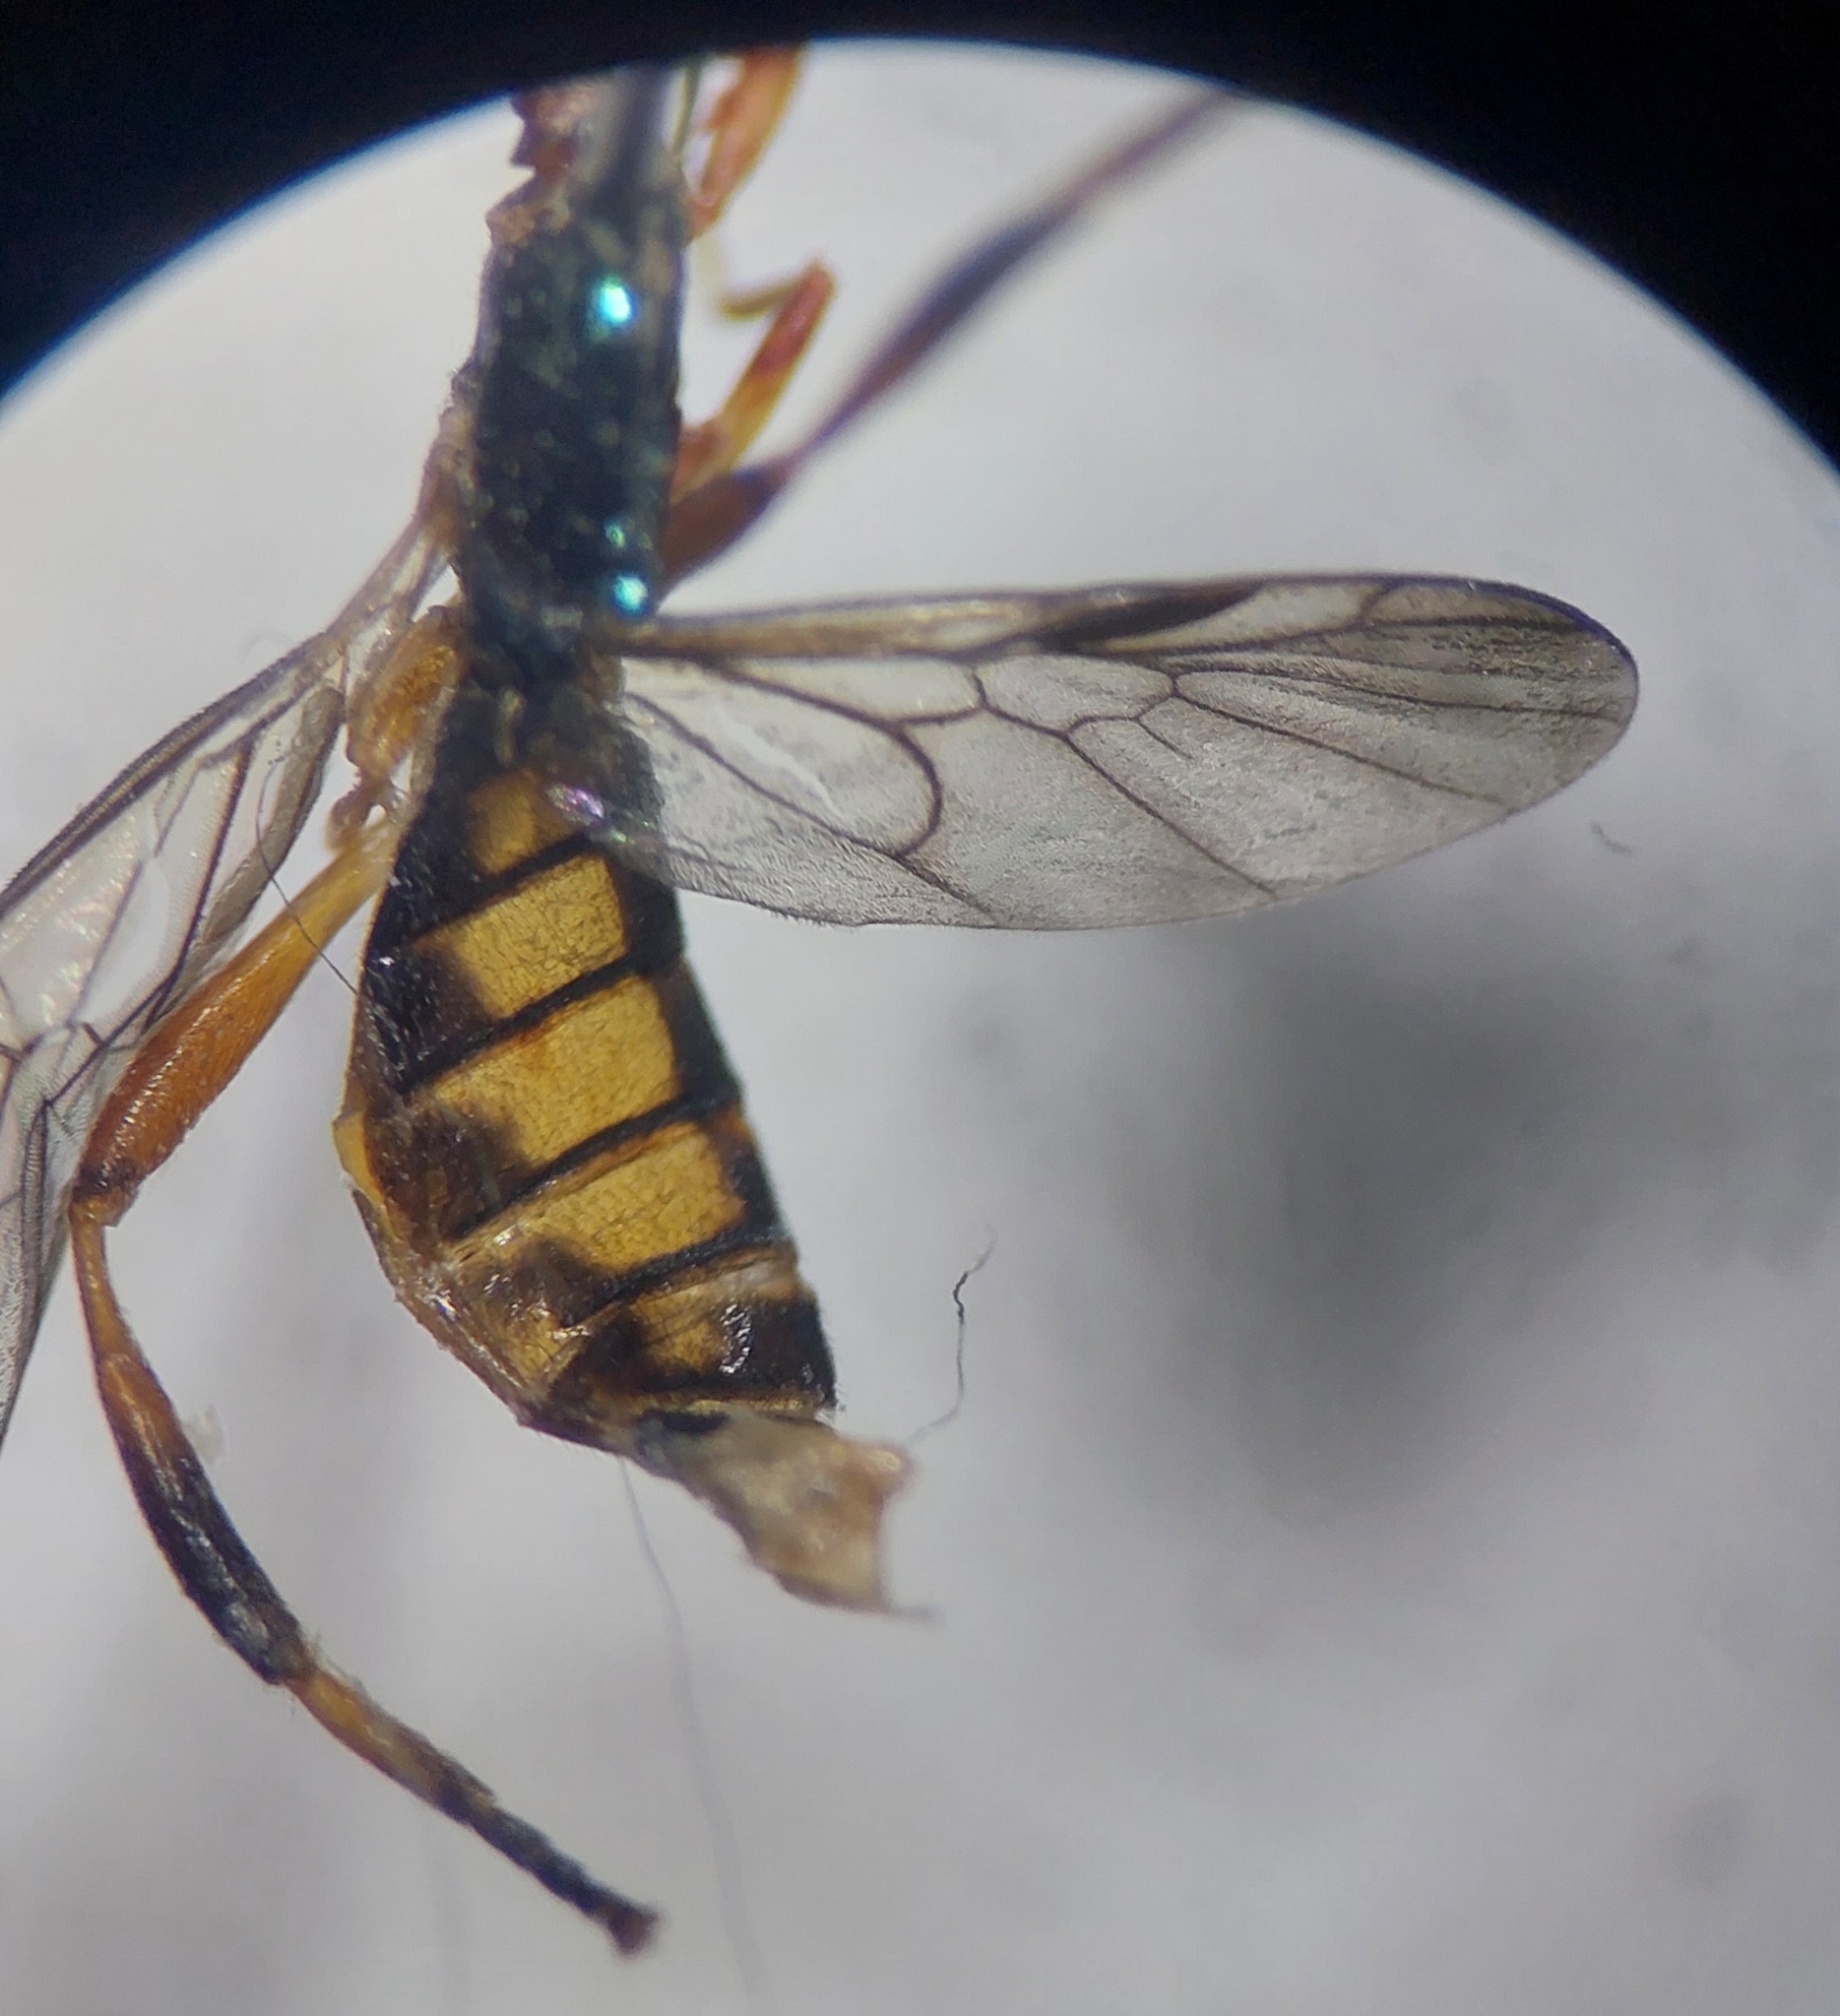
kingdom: Animalia
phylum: Arthropoda
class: Insecta
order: Diptera
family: Stratiomyidae
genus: Chorisops
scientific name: Chorisops tibialis
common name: Dull four-spined legionnaire
